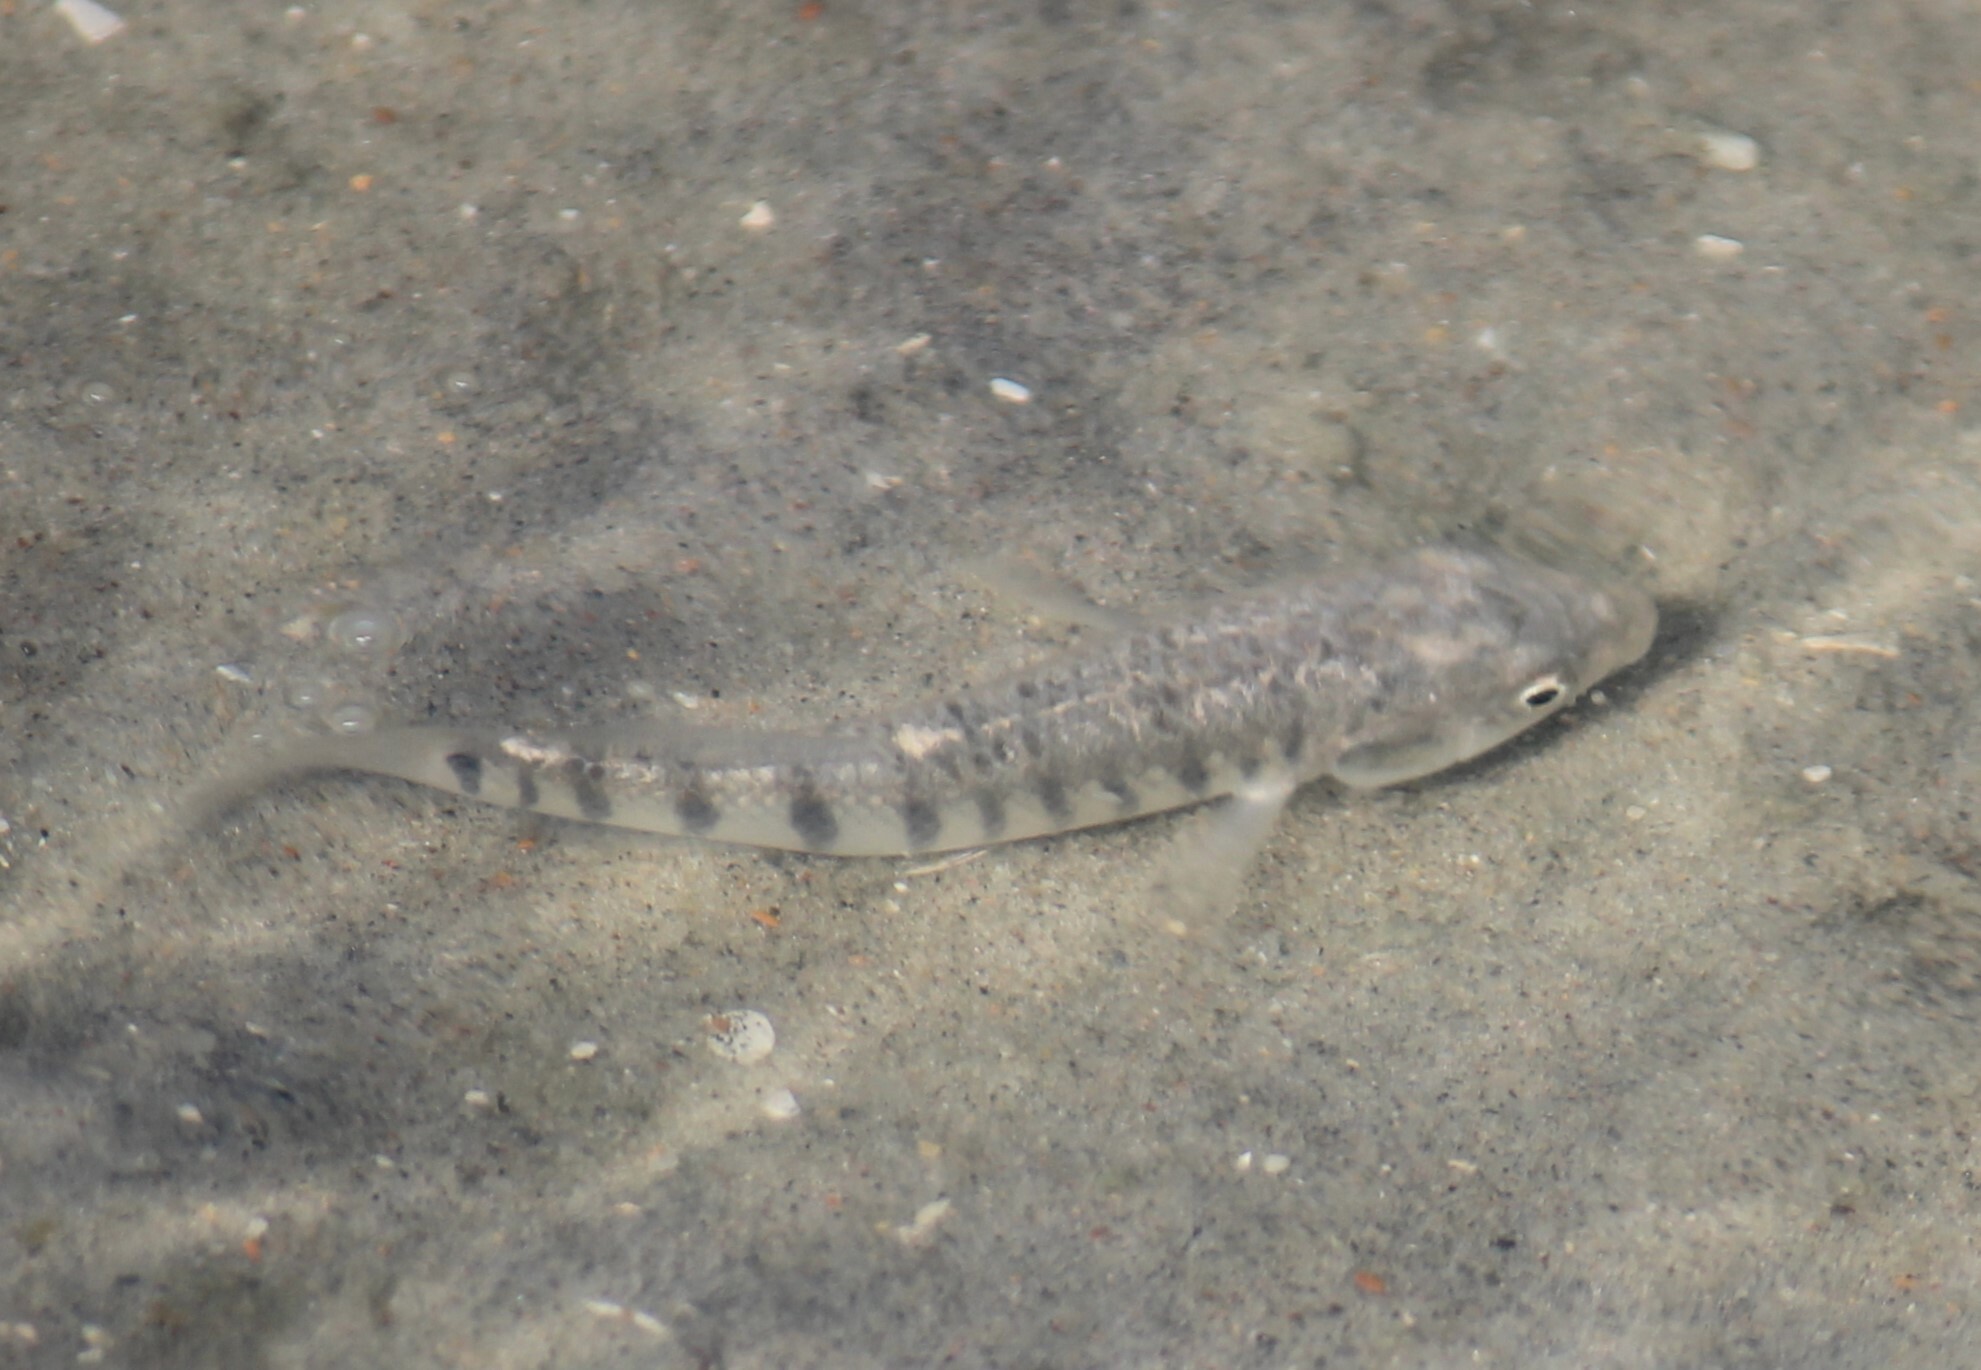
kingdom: Animalia
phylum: Chordata
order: Cyprinodontiformes
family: Fundulidae
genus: Fundulus
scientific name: Fundulus majalis
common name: Striped killifish
